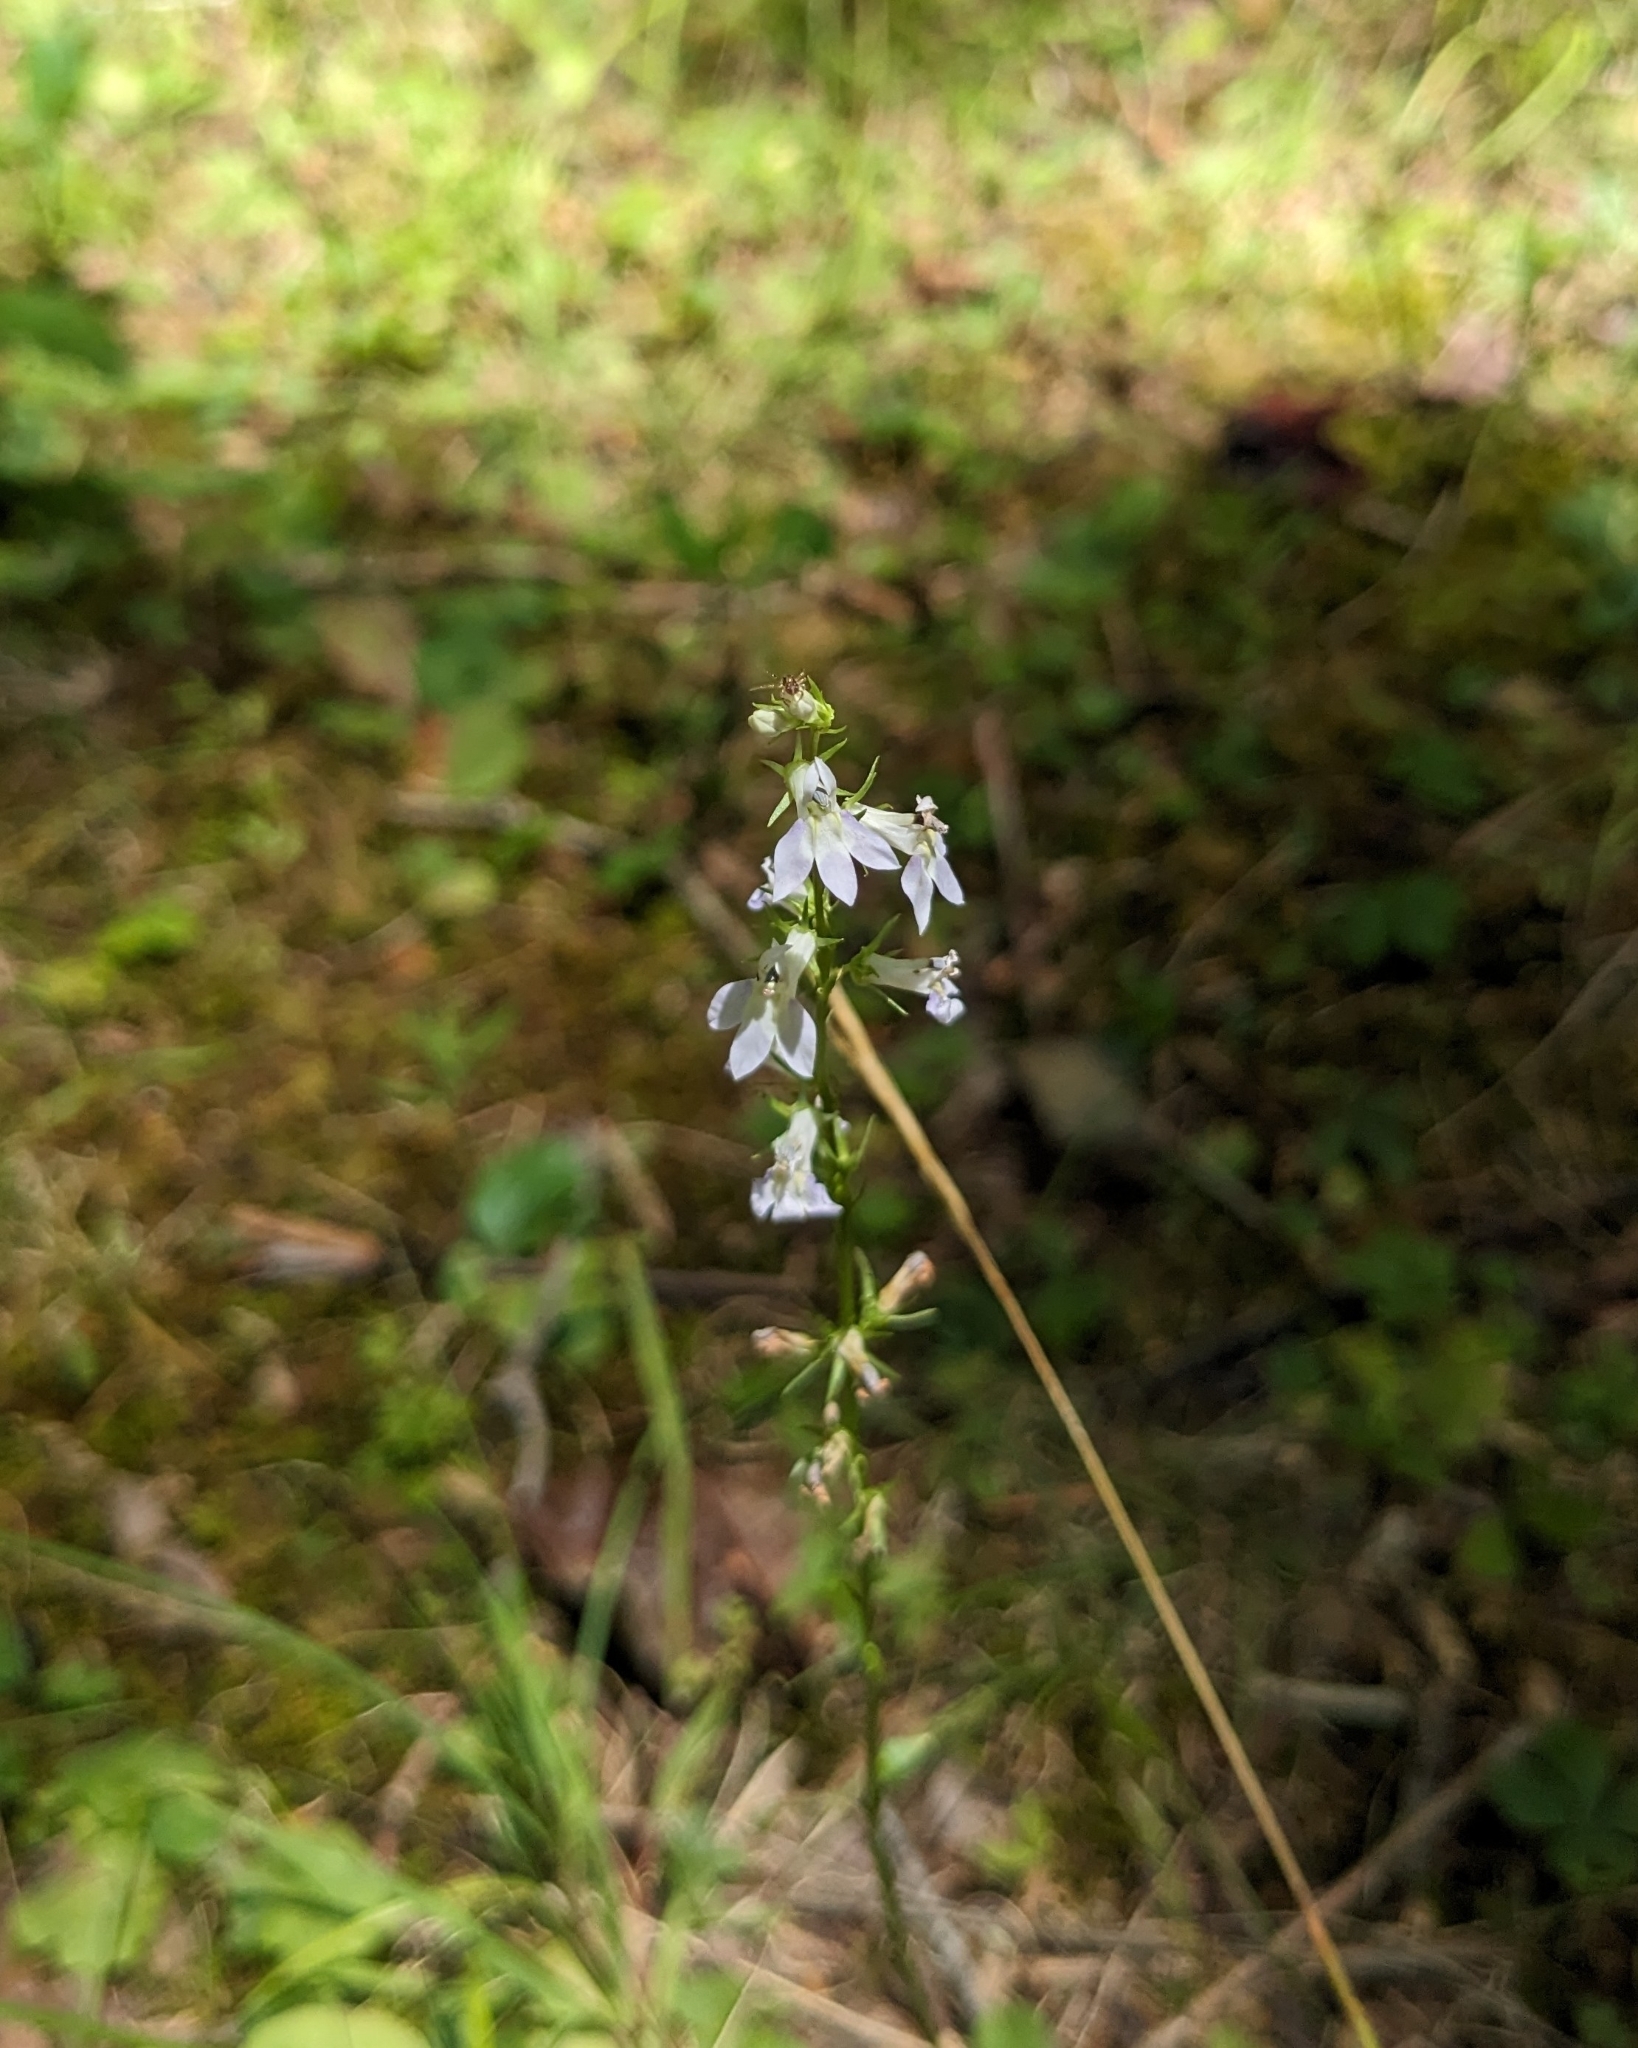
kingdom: Plantae
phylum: Tracheophyta
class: Magnoliopsida
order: Asterales
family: Campanulaceae
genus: Lobelia
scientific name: Lobelia spicata
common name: Pale-spike lobelia
